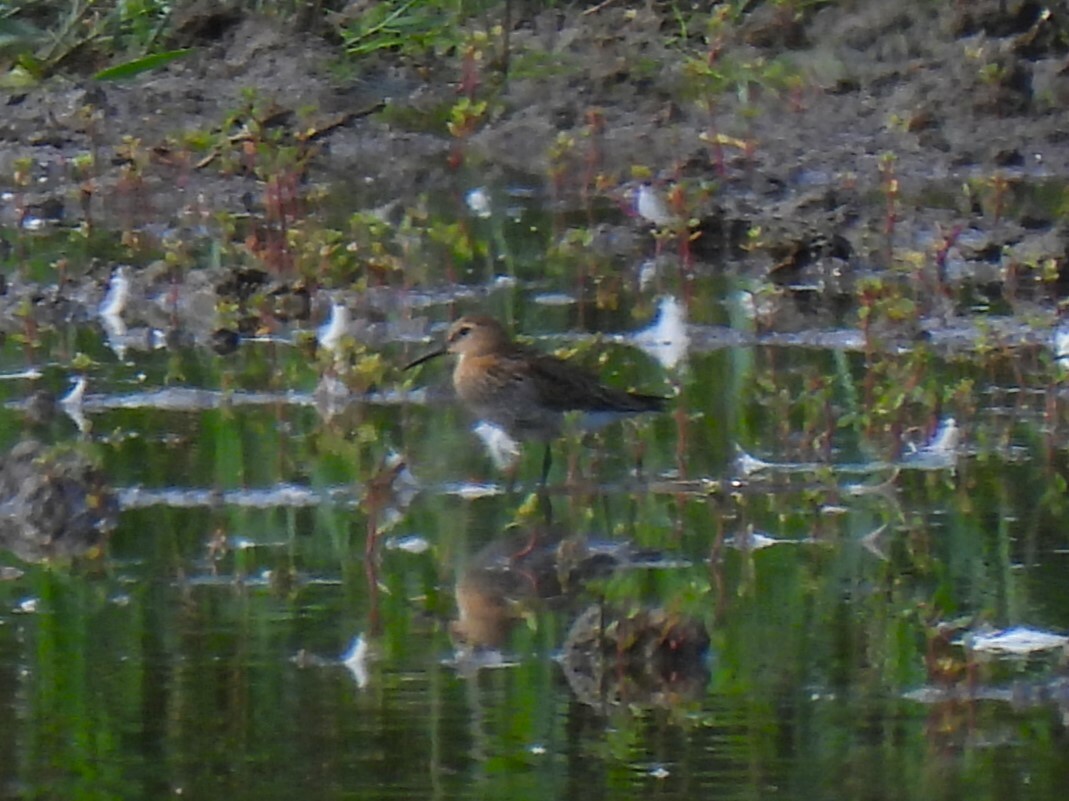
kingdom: Animalia
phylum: Chordata
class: Aves
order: Charadriiformes
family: Scolopacidae
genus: Calidris
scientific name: Calidris alpina
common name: Dunlin
